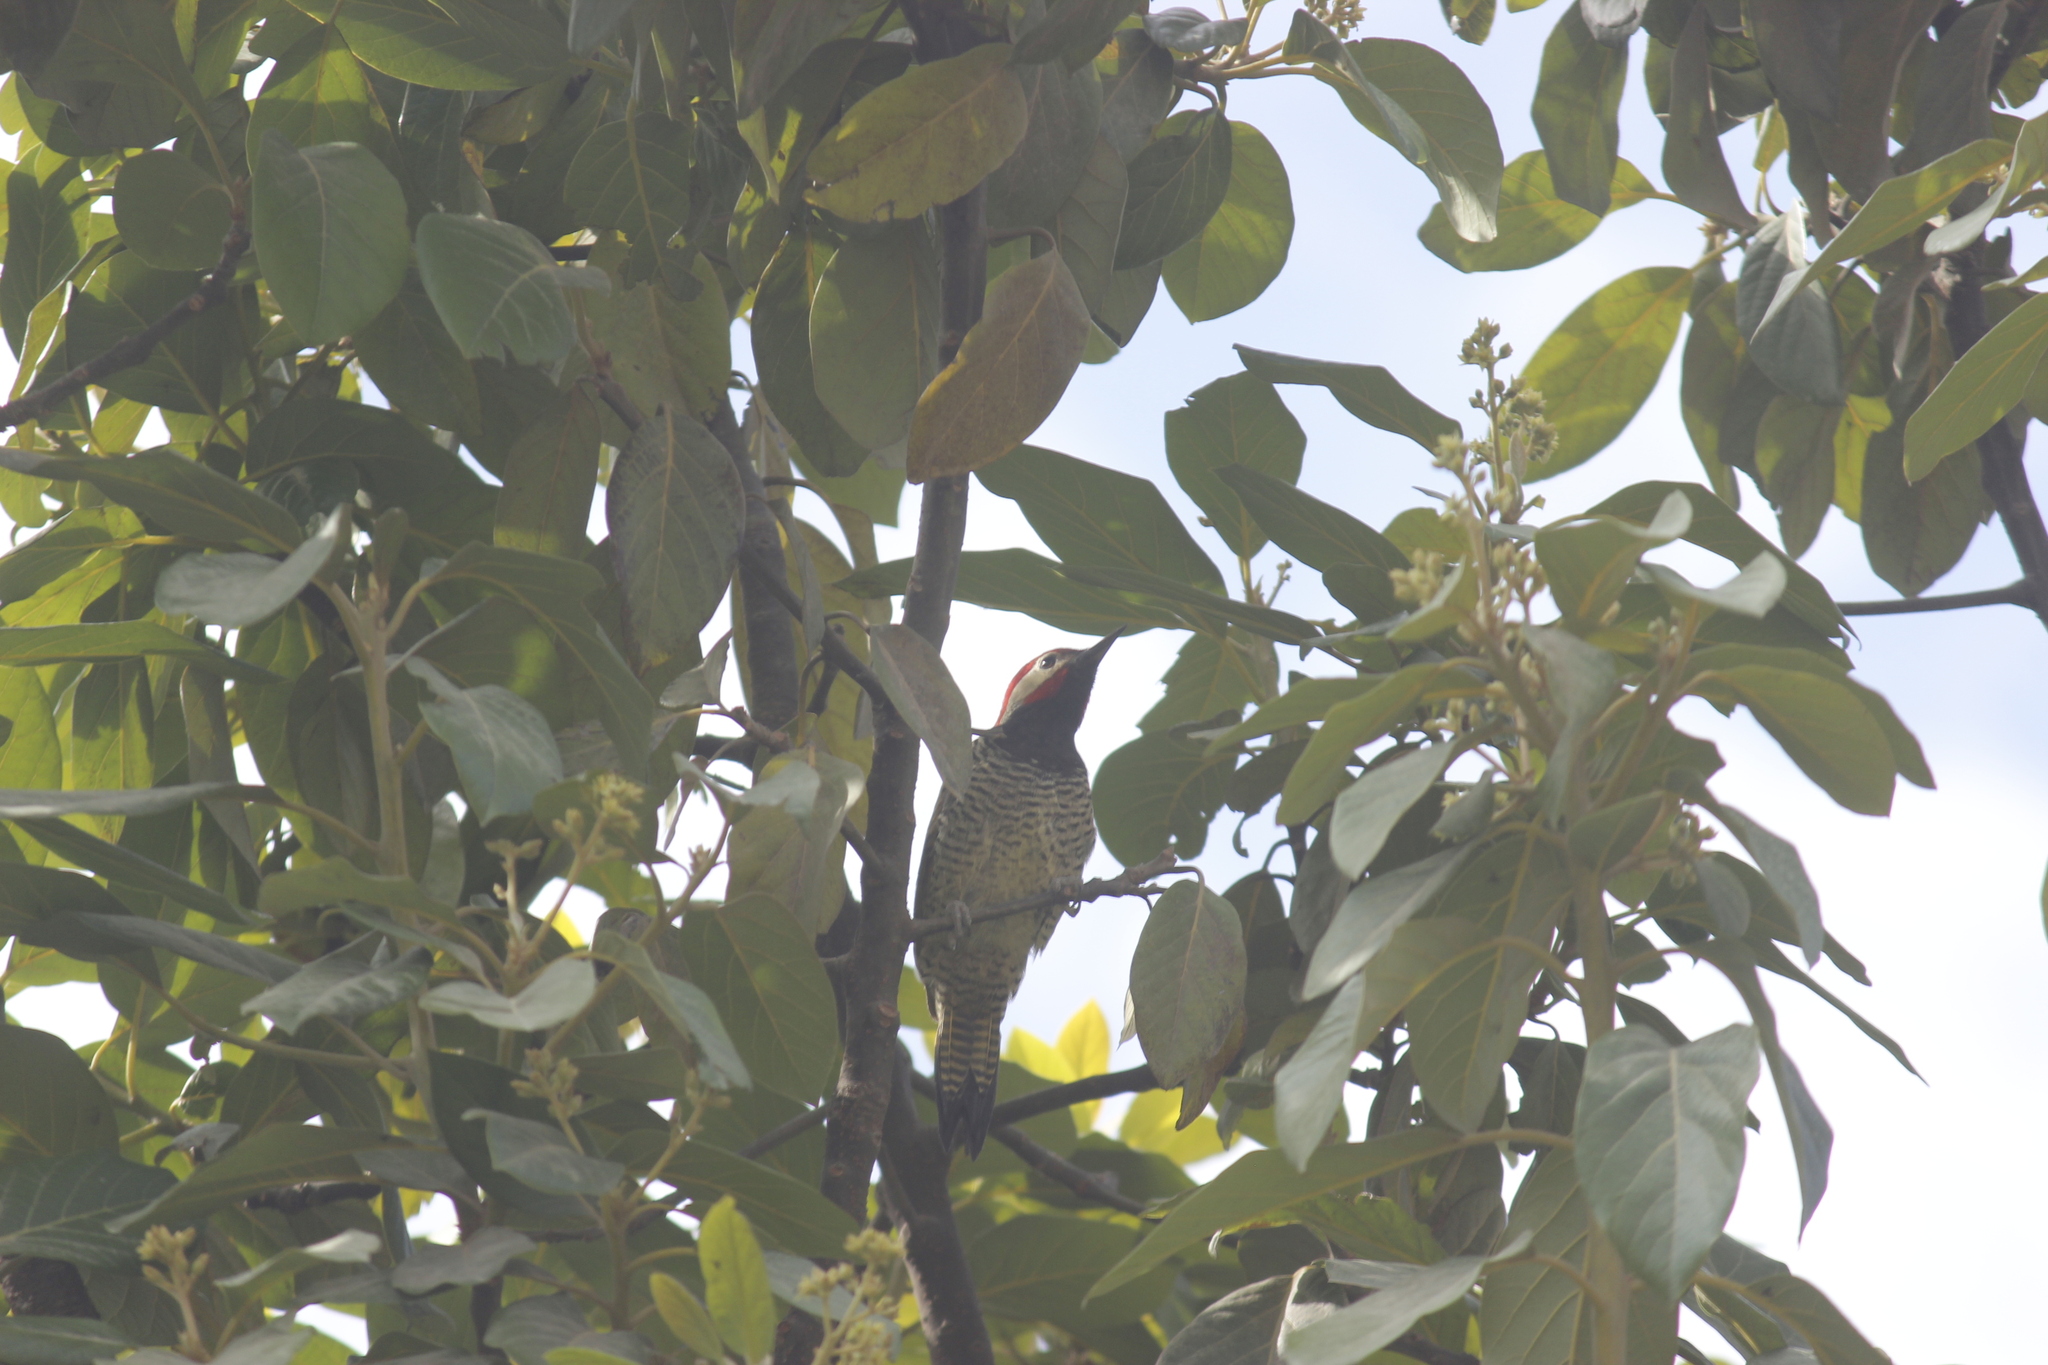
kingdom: Animalia
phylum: Chordata
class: Aves
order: Piciformes
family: Picidae
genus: Colaptes
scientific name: Colaptes atricollis
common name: Black-necked woodpecker
